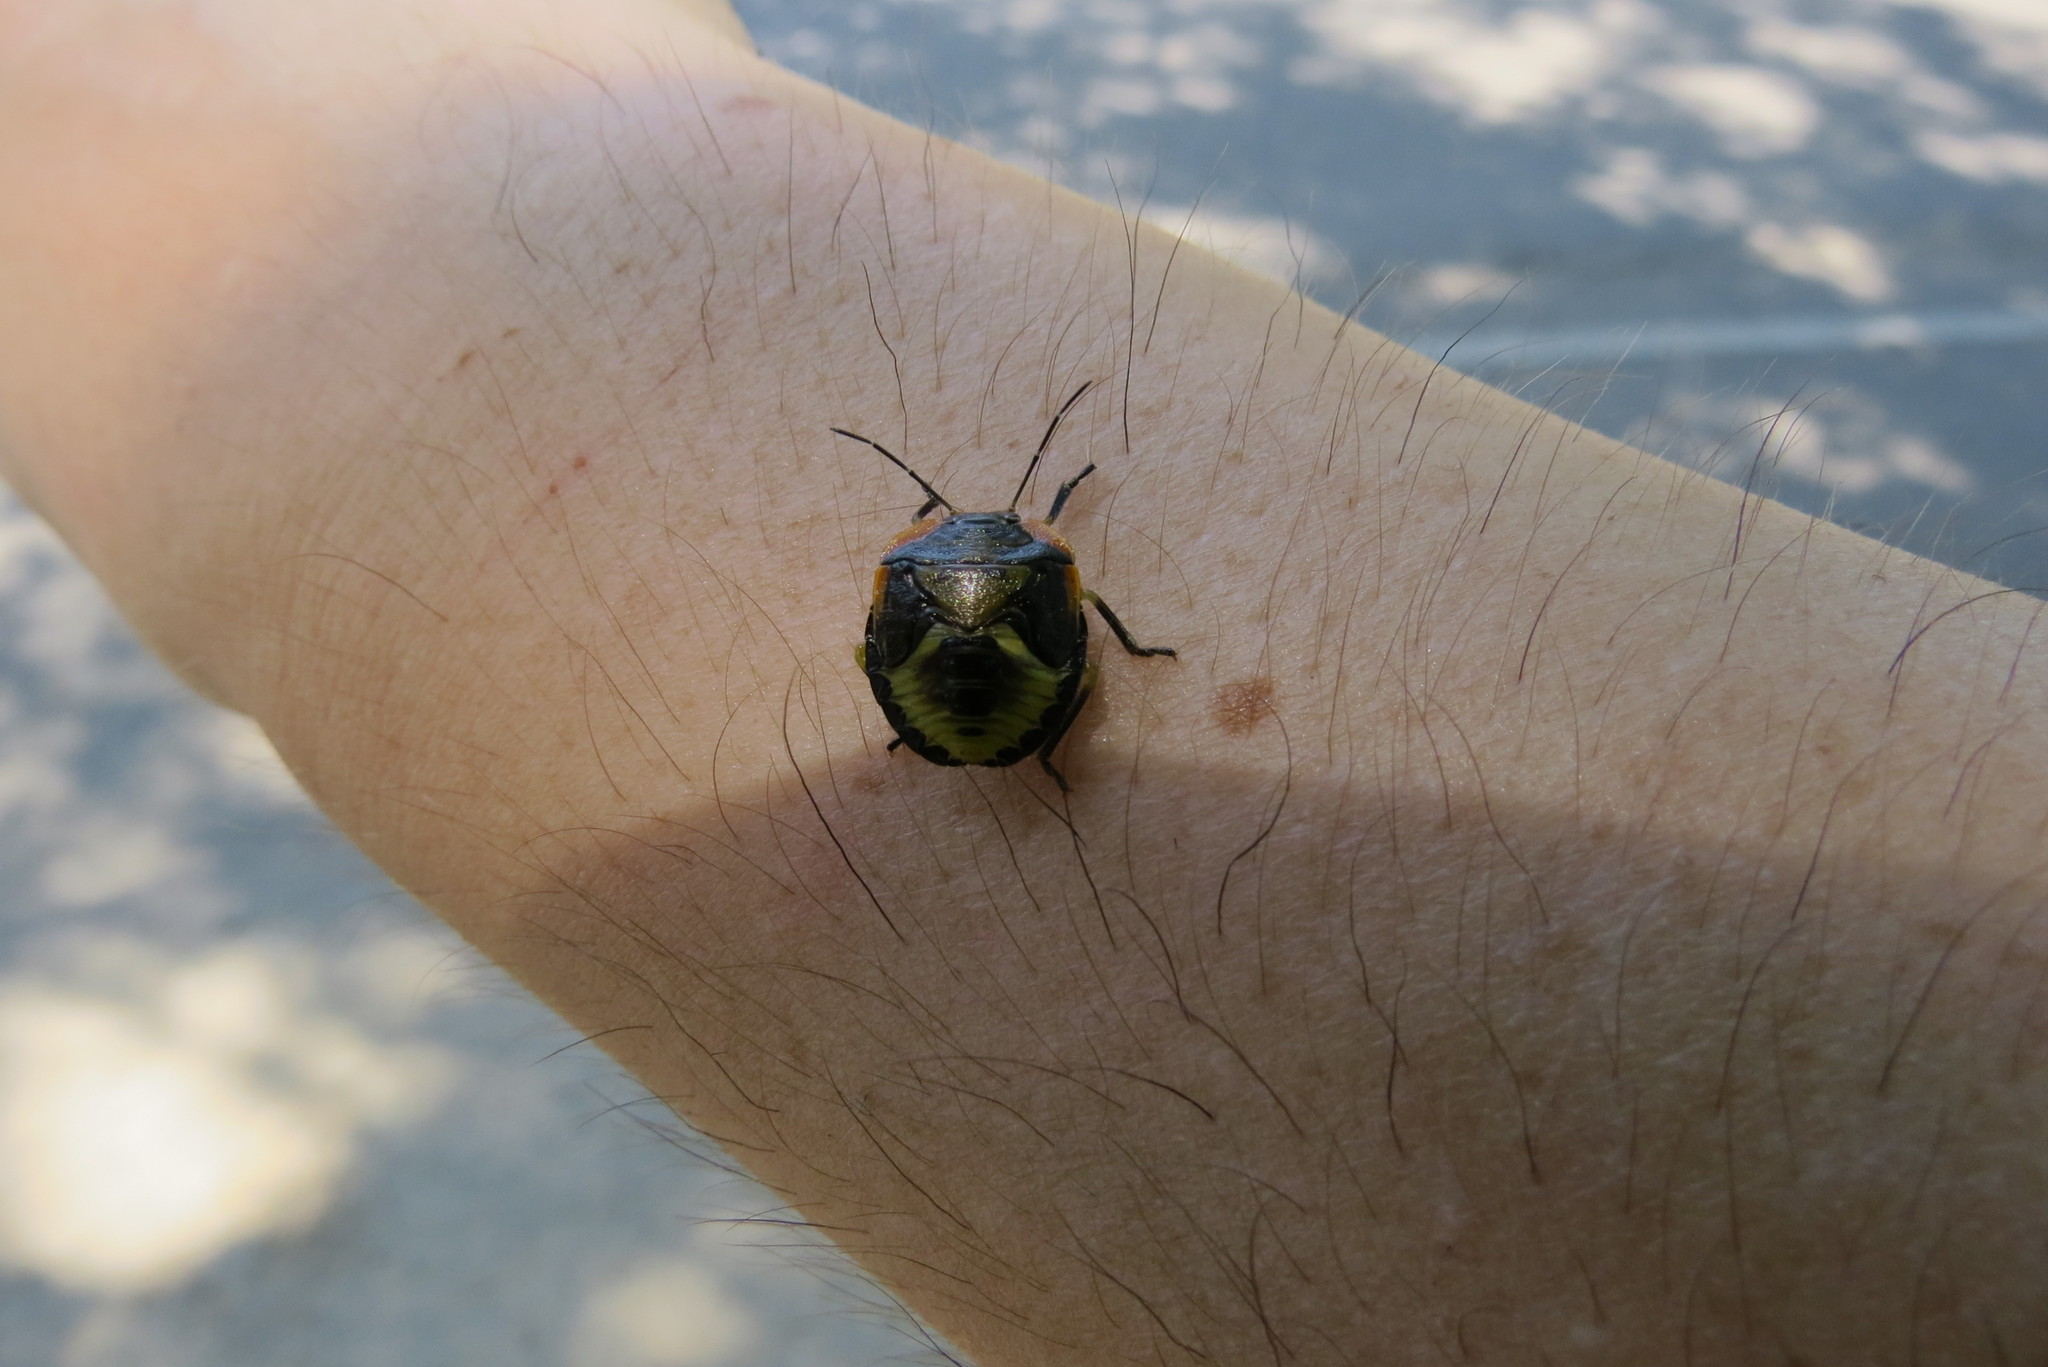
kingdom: Animalia
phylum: Arthropoda
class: Insecta
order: Hemiptera
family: Pentatomidae
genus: Chinavia
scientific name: Chinavia hilaris
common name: Green stink bug
